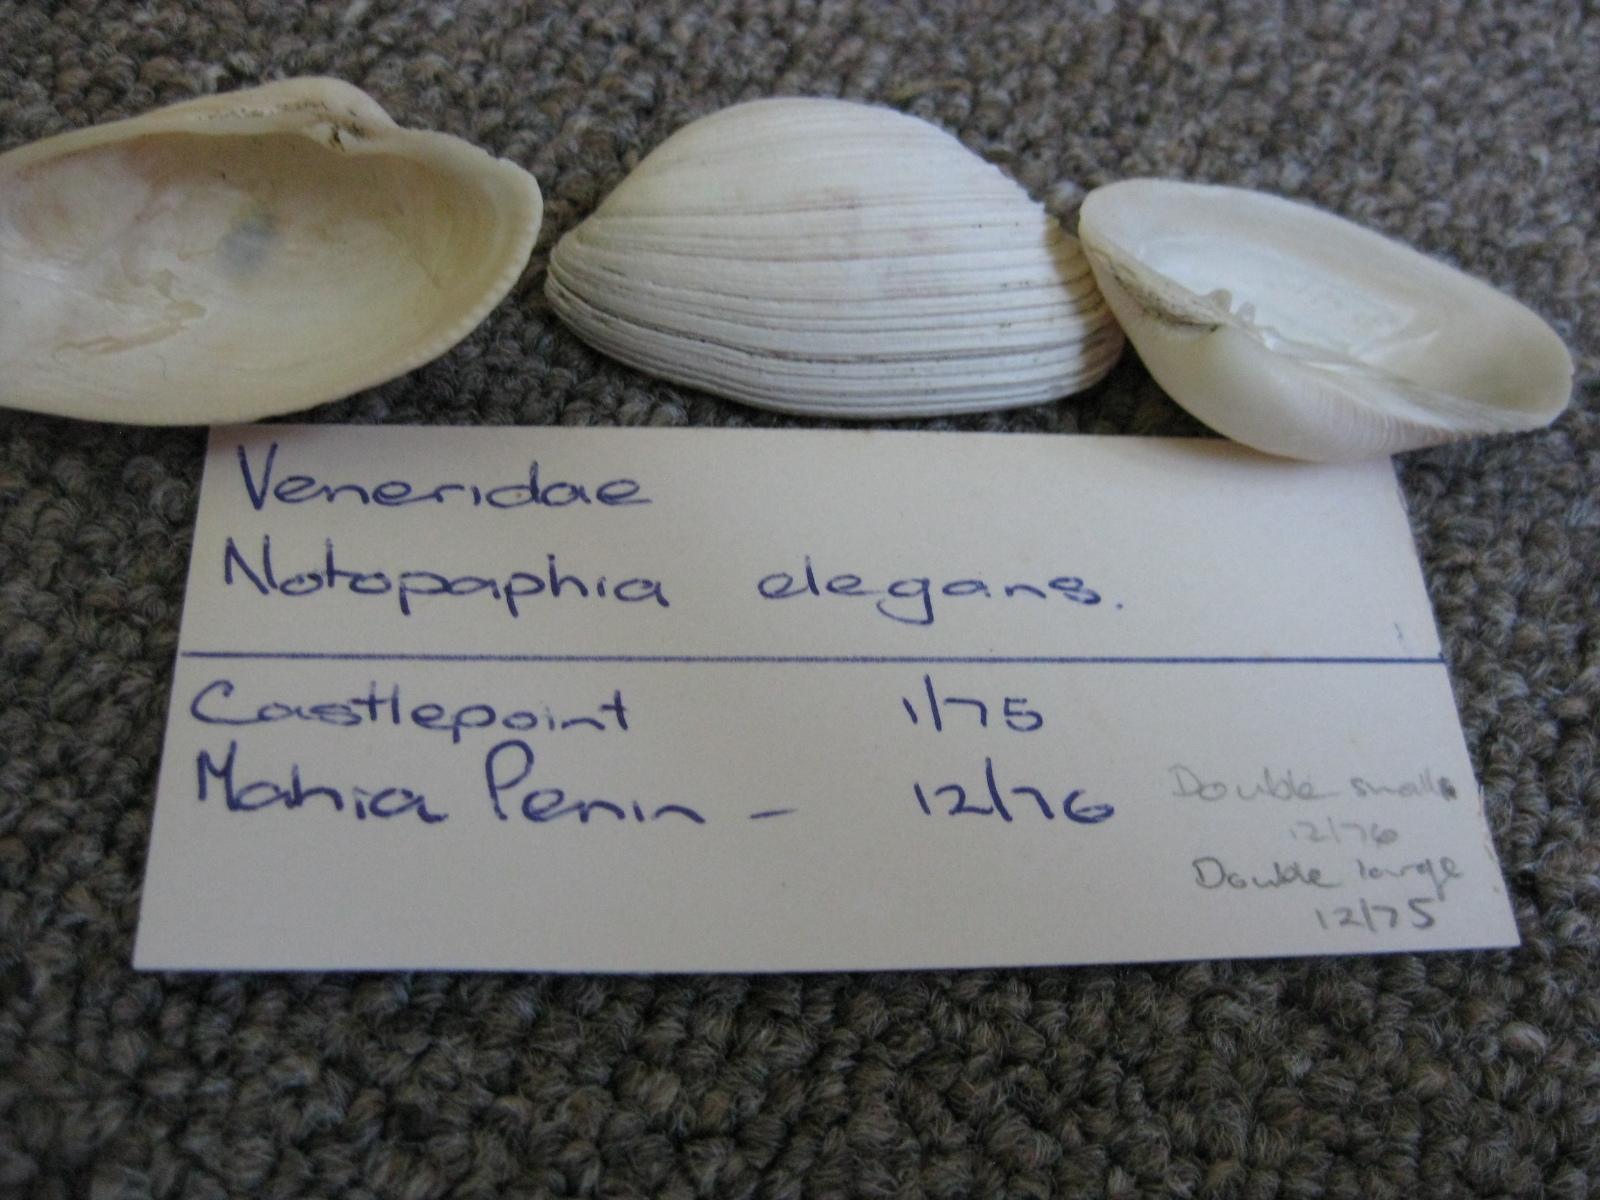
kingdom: Animalia
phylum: Mollusca
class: Bivalvia
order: Venerida
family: Veneridae
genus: Irus
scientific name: Irus elegans
